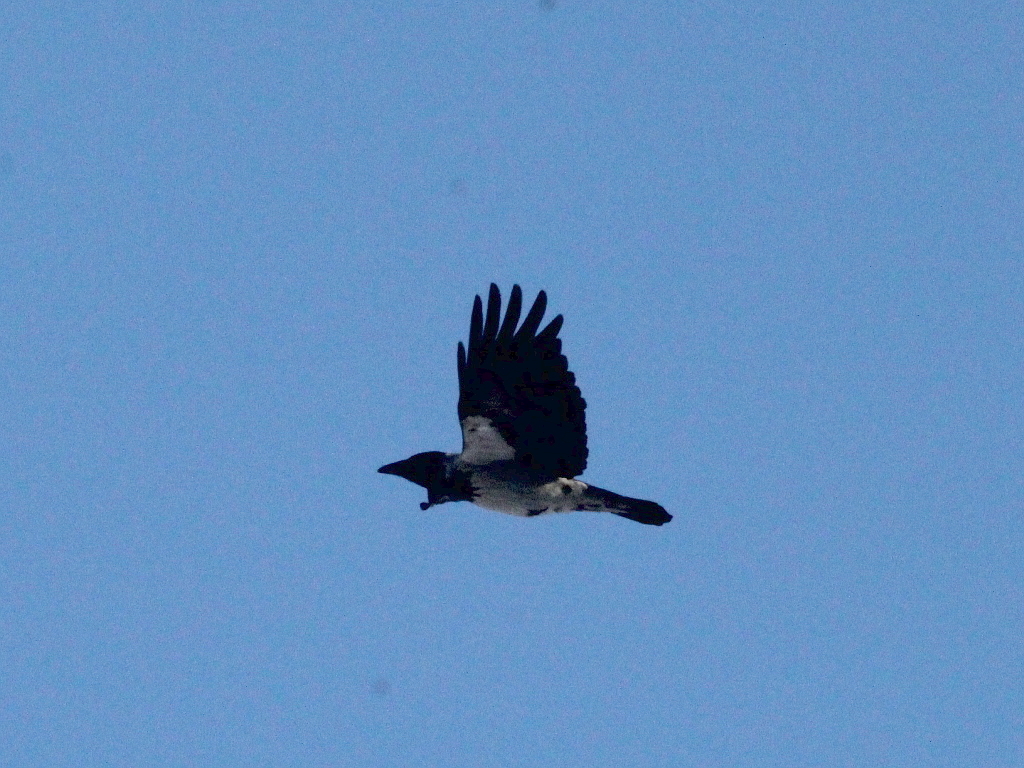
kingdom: Animalia
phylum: Chordata
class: Aves
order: Passeriformes
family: Corvidae
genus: Corvus
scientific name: Corvus cornix
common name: Hooded crow
